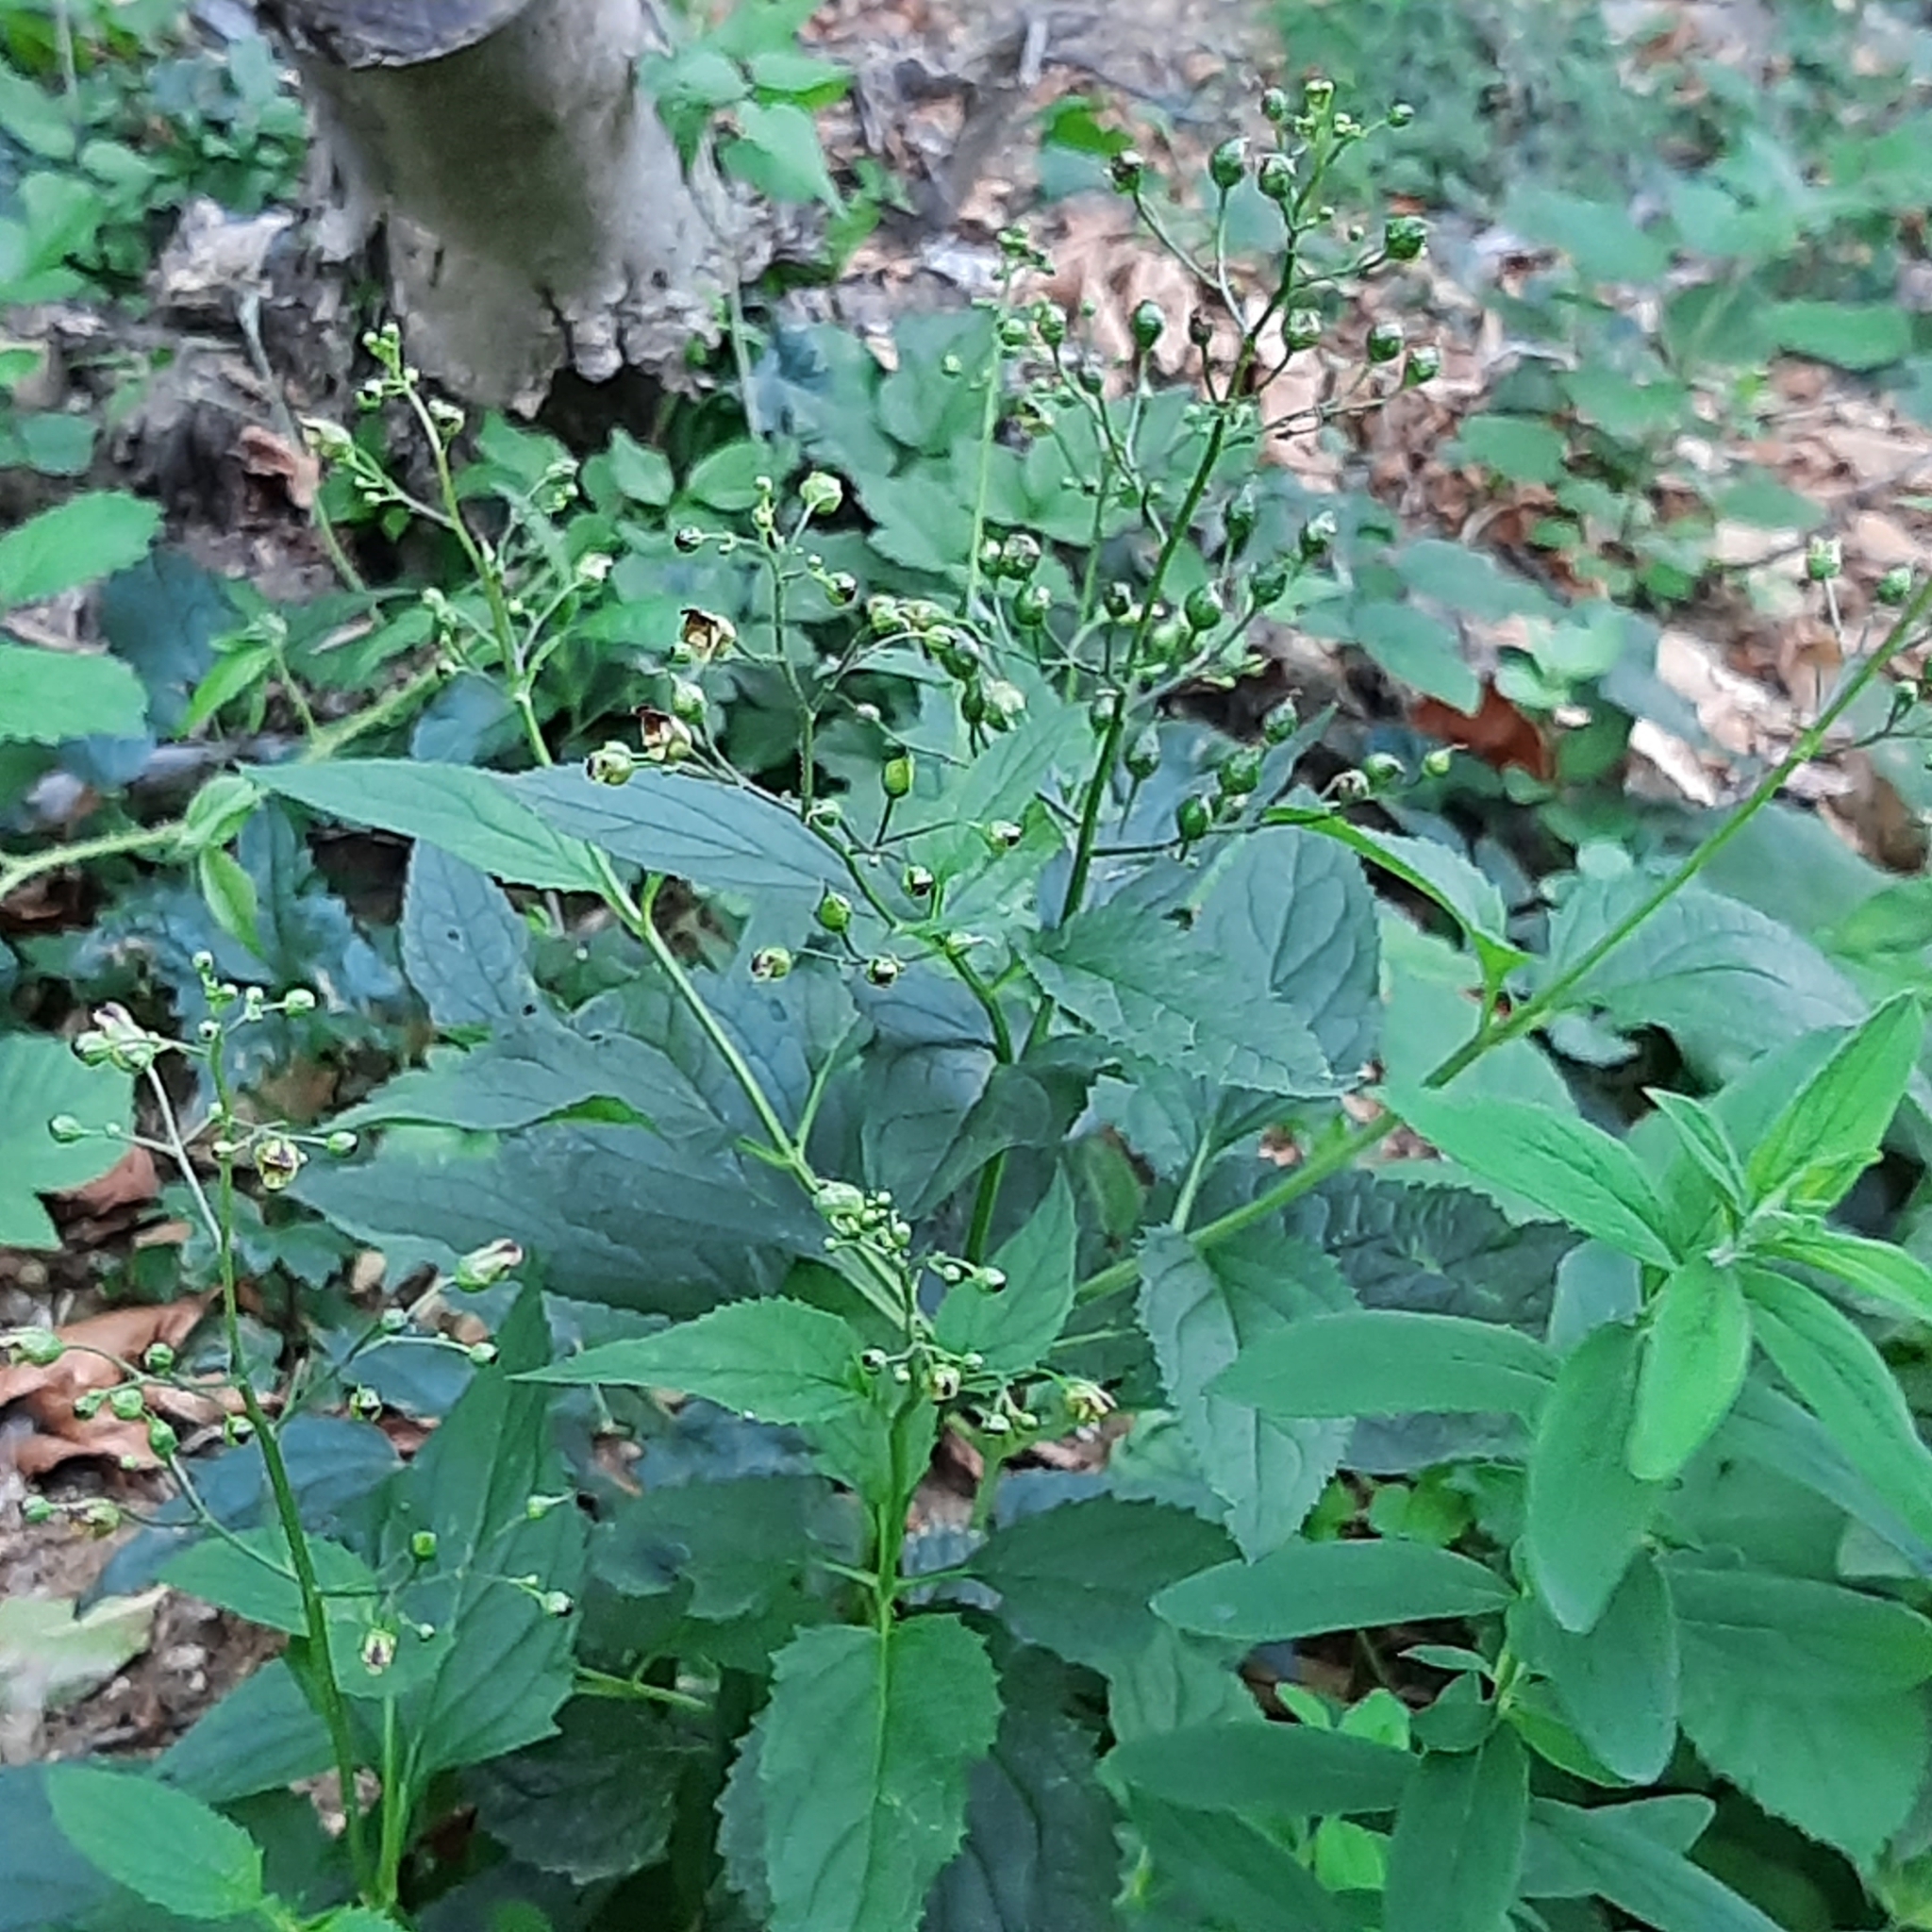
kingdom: Plantae
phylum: Tracheophyta
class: Magnoliopsida
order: Lamiales
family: Scrophulariaceae
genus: Scrophularia
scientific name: Scrophularia nodosa
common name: Common figwort
